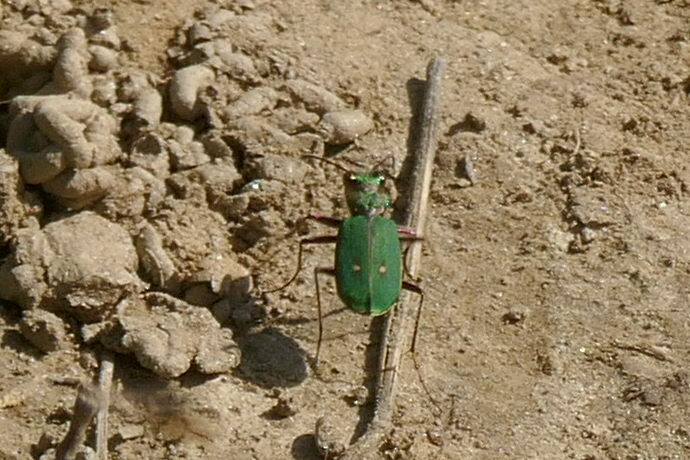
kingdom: Animalia
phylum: Arthropoda
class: Insecta
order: Coleoptera
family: Carabidae
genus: Cicindela
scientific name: Cicindela campestris
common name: Common tiger beetle
